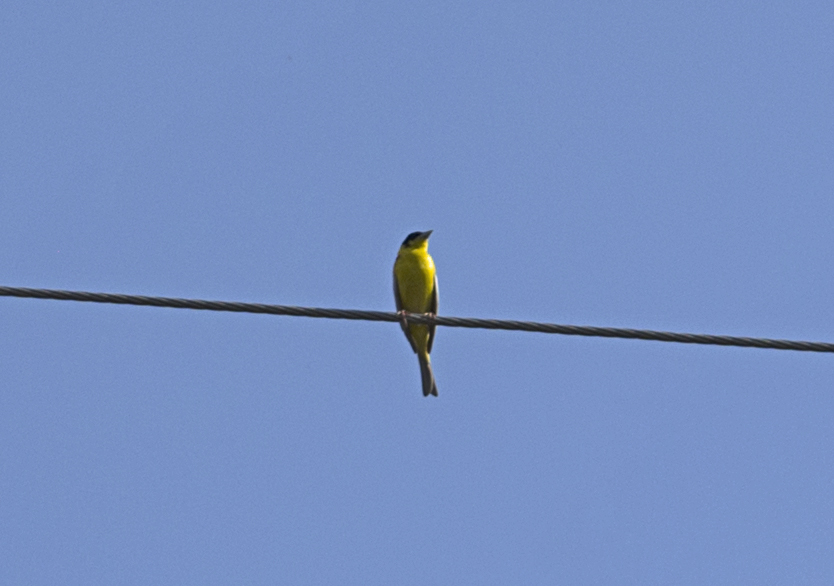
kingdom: Animalia
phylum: Chordata
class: Aves
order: Passeriformes
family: Emberizidae
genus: Emberiza
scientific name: Emberiza melanocephala
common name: Black-headed bunting
